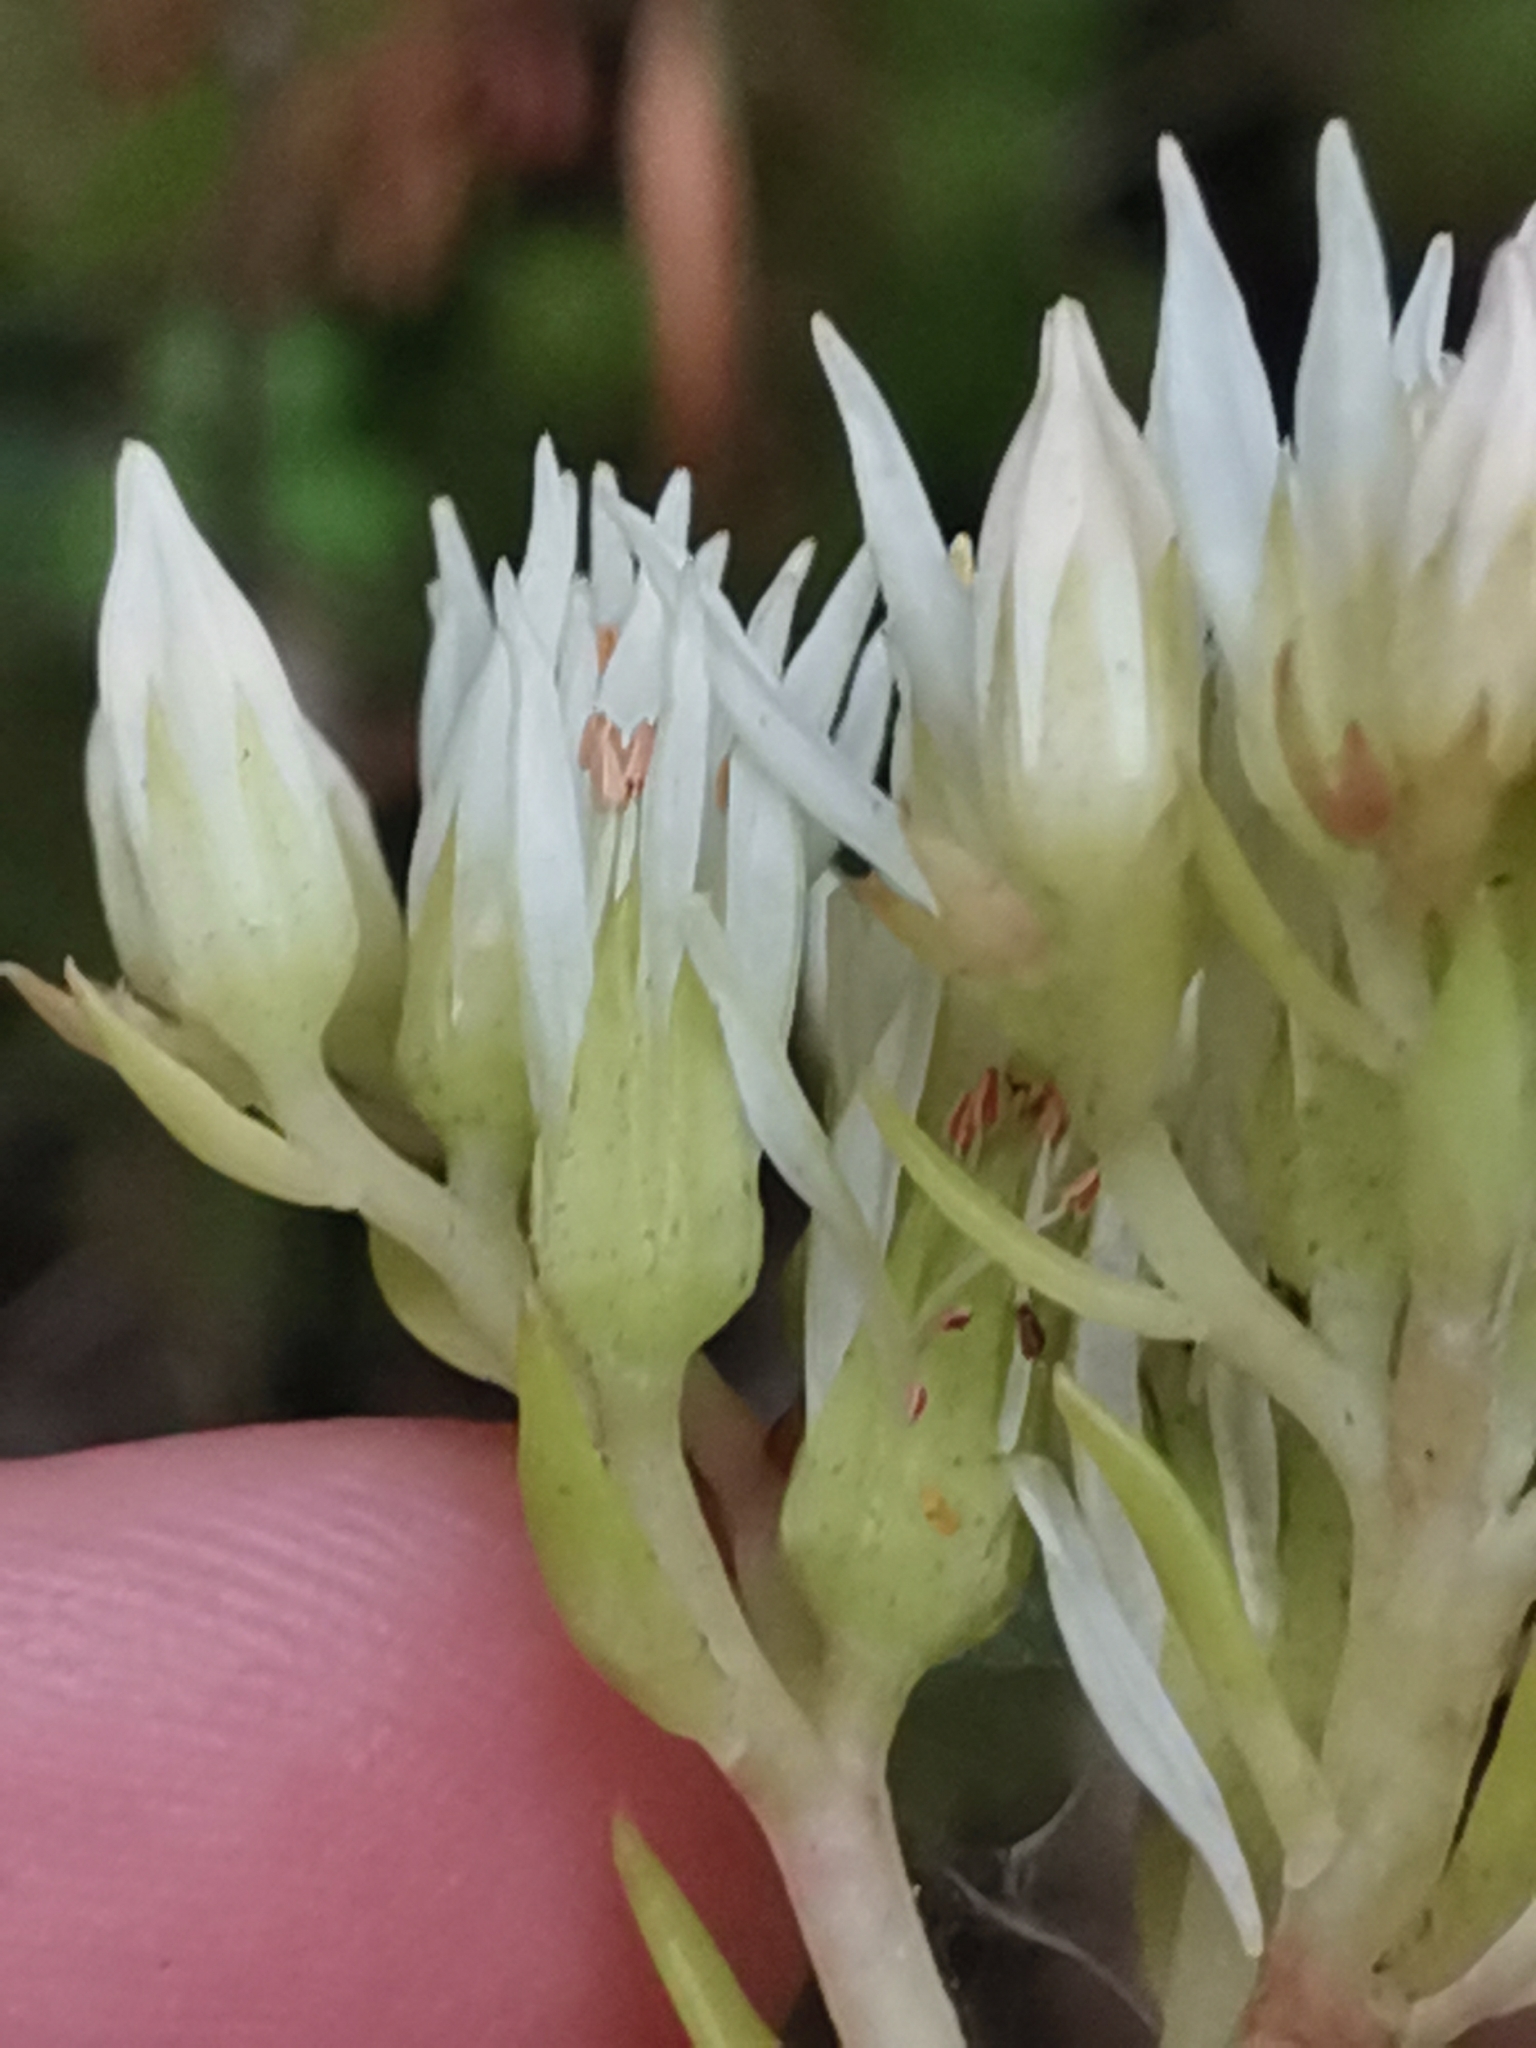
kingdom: Plantae
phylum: Tracheophyta
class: Magnoliopsida
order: Saxifragales
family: Crassulaceae
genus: Petrosedum
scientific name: Petrosedum ochroleucum
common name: European stonecrop
